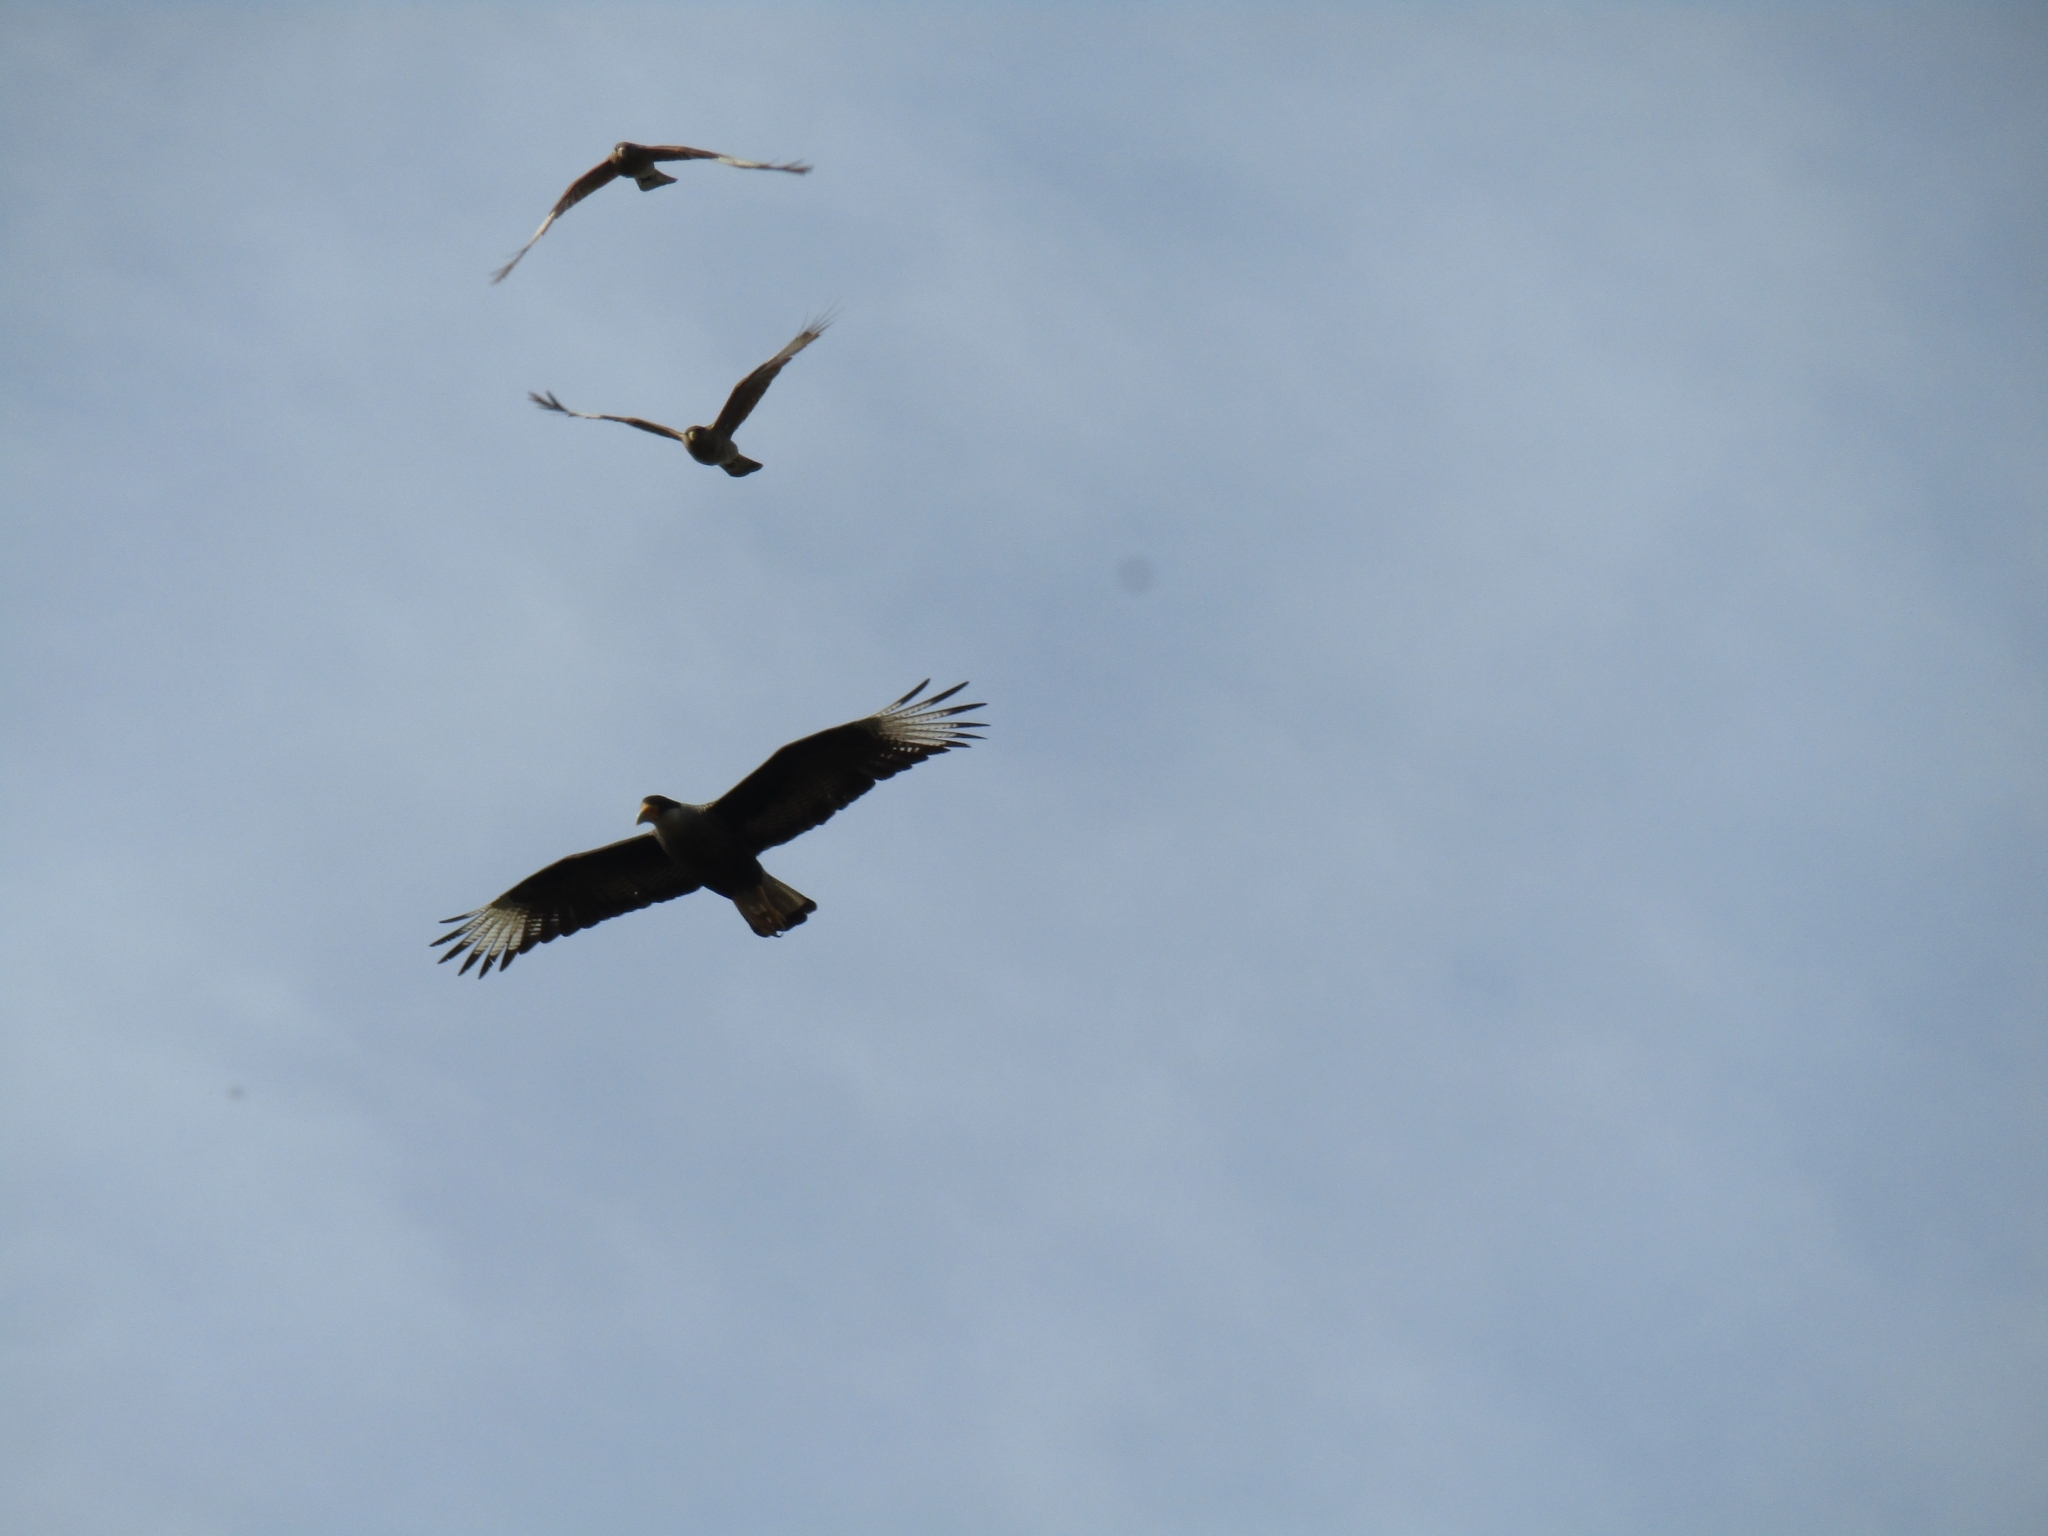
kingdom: Animalia
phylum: Chordata
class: Aves
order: Falconiformes
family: Falconidae
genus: Caracara
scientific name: Caracara plancus
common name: Southern caracara
